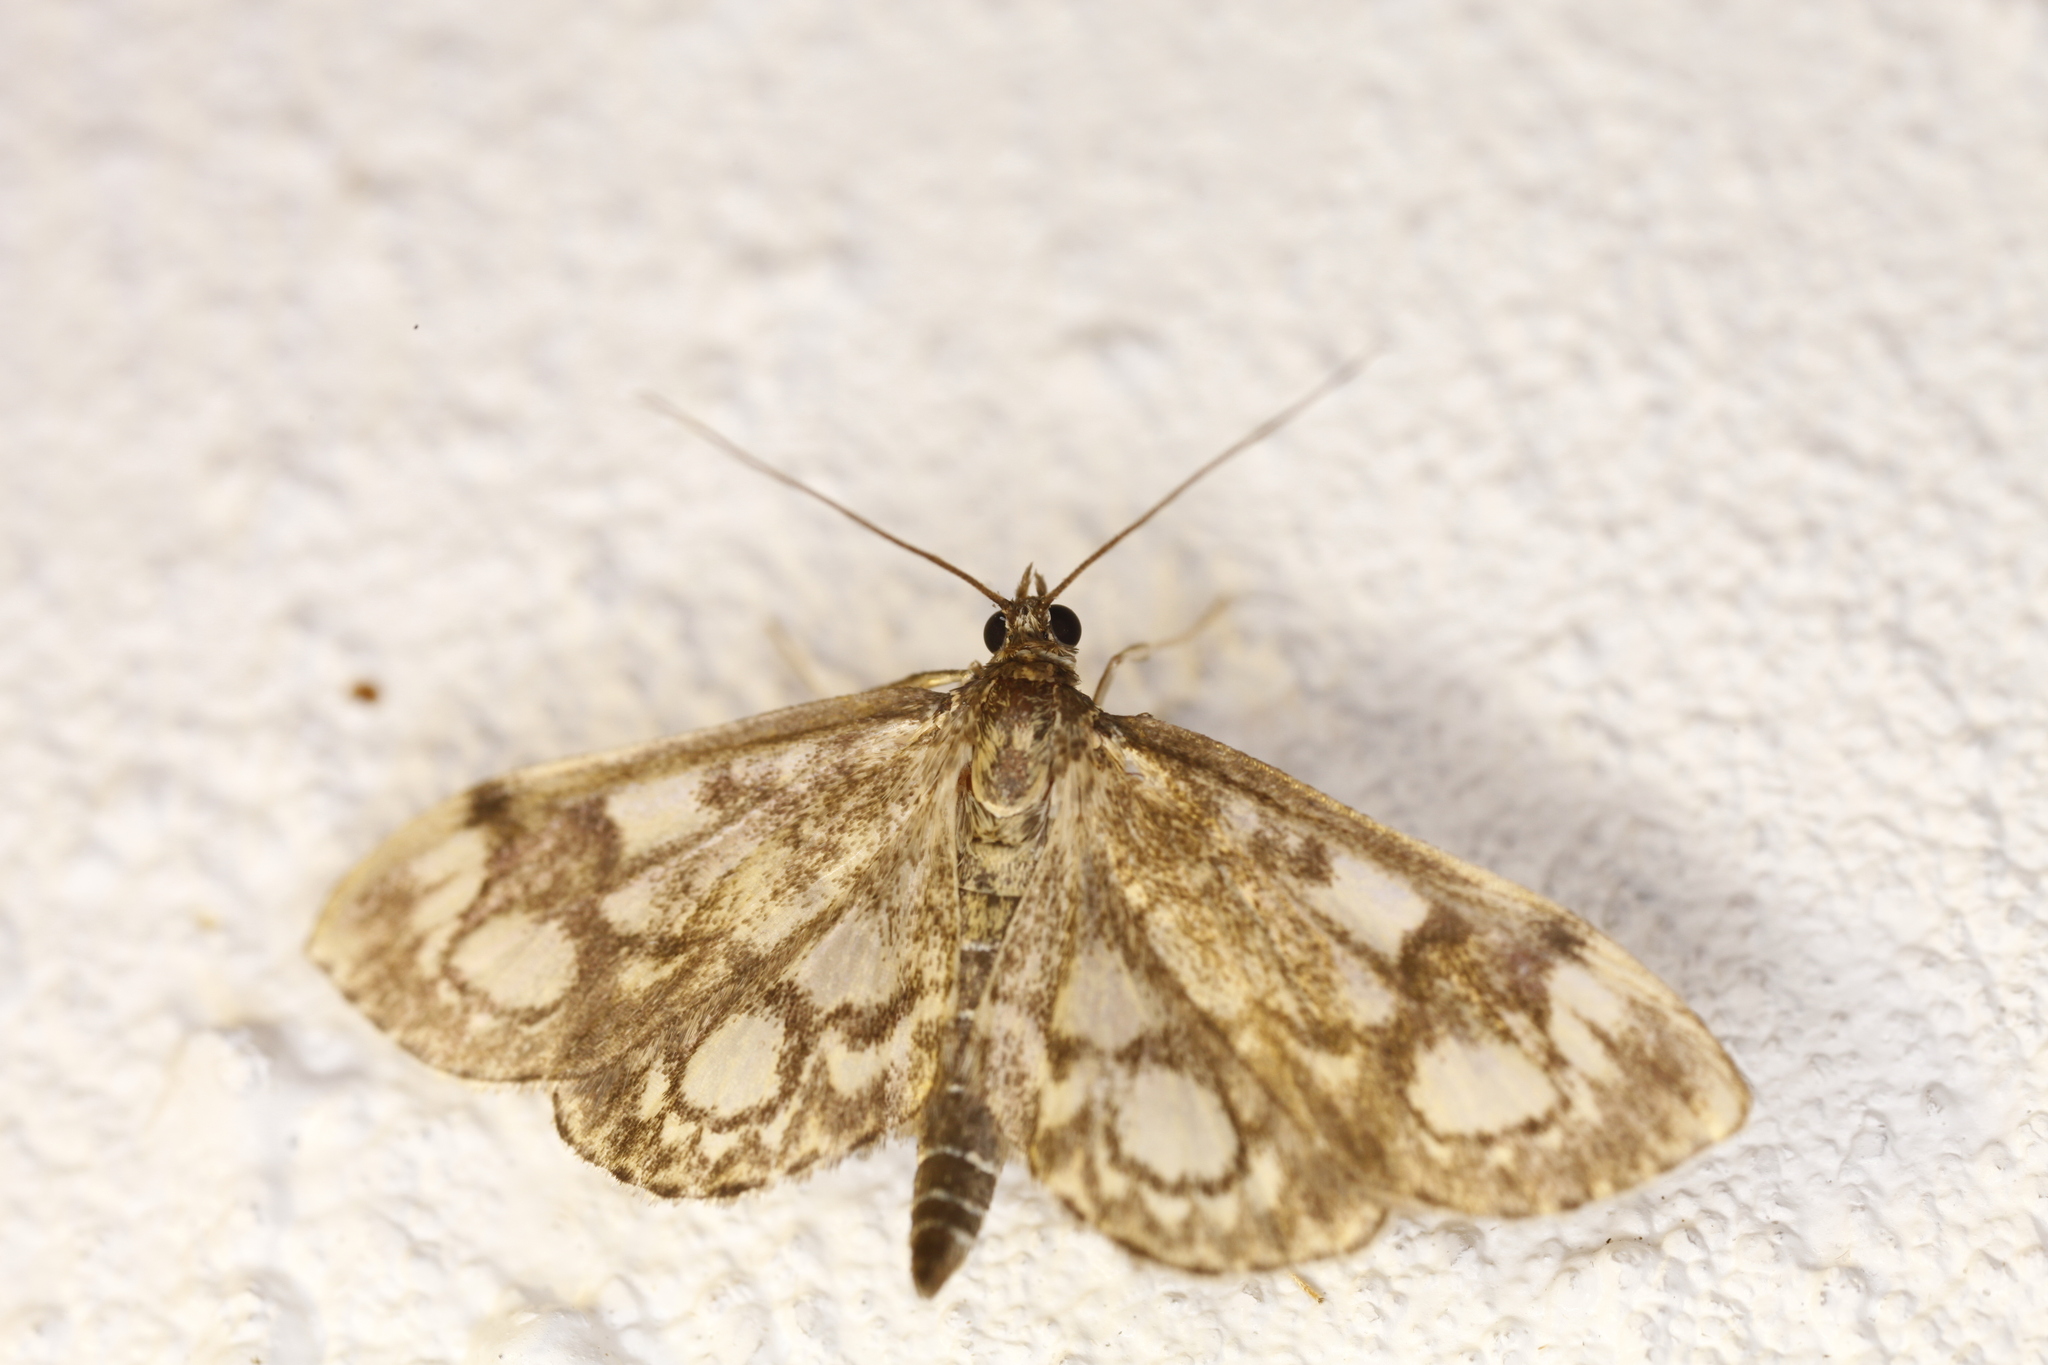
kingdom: Animalia
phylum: Arthropoda
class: Insecta
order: Lepidoptera
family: Crambidae
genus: Anania
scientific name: Anania coronata
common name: Elder pearl
